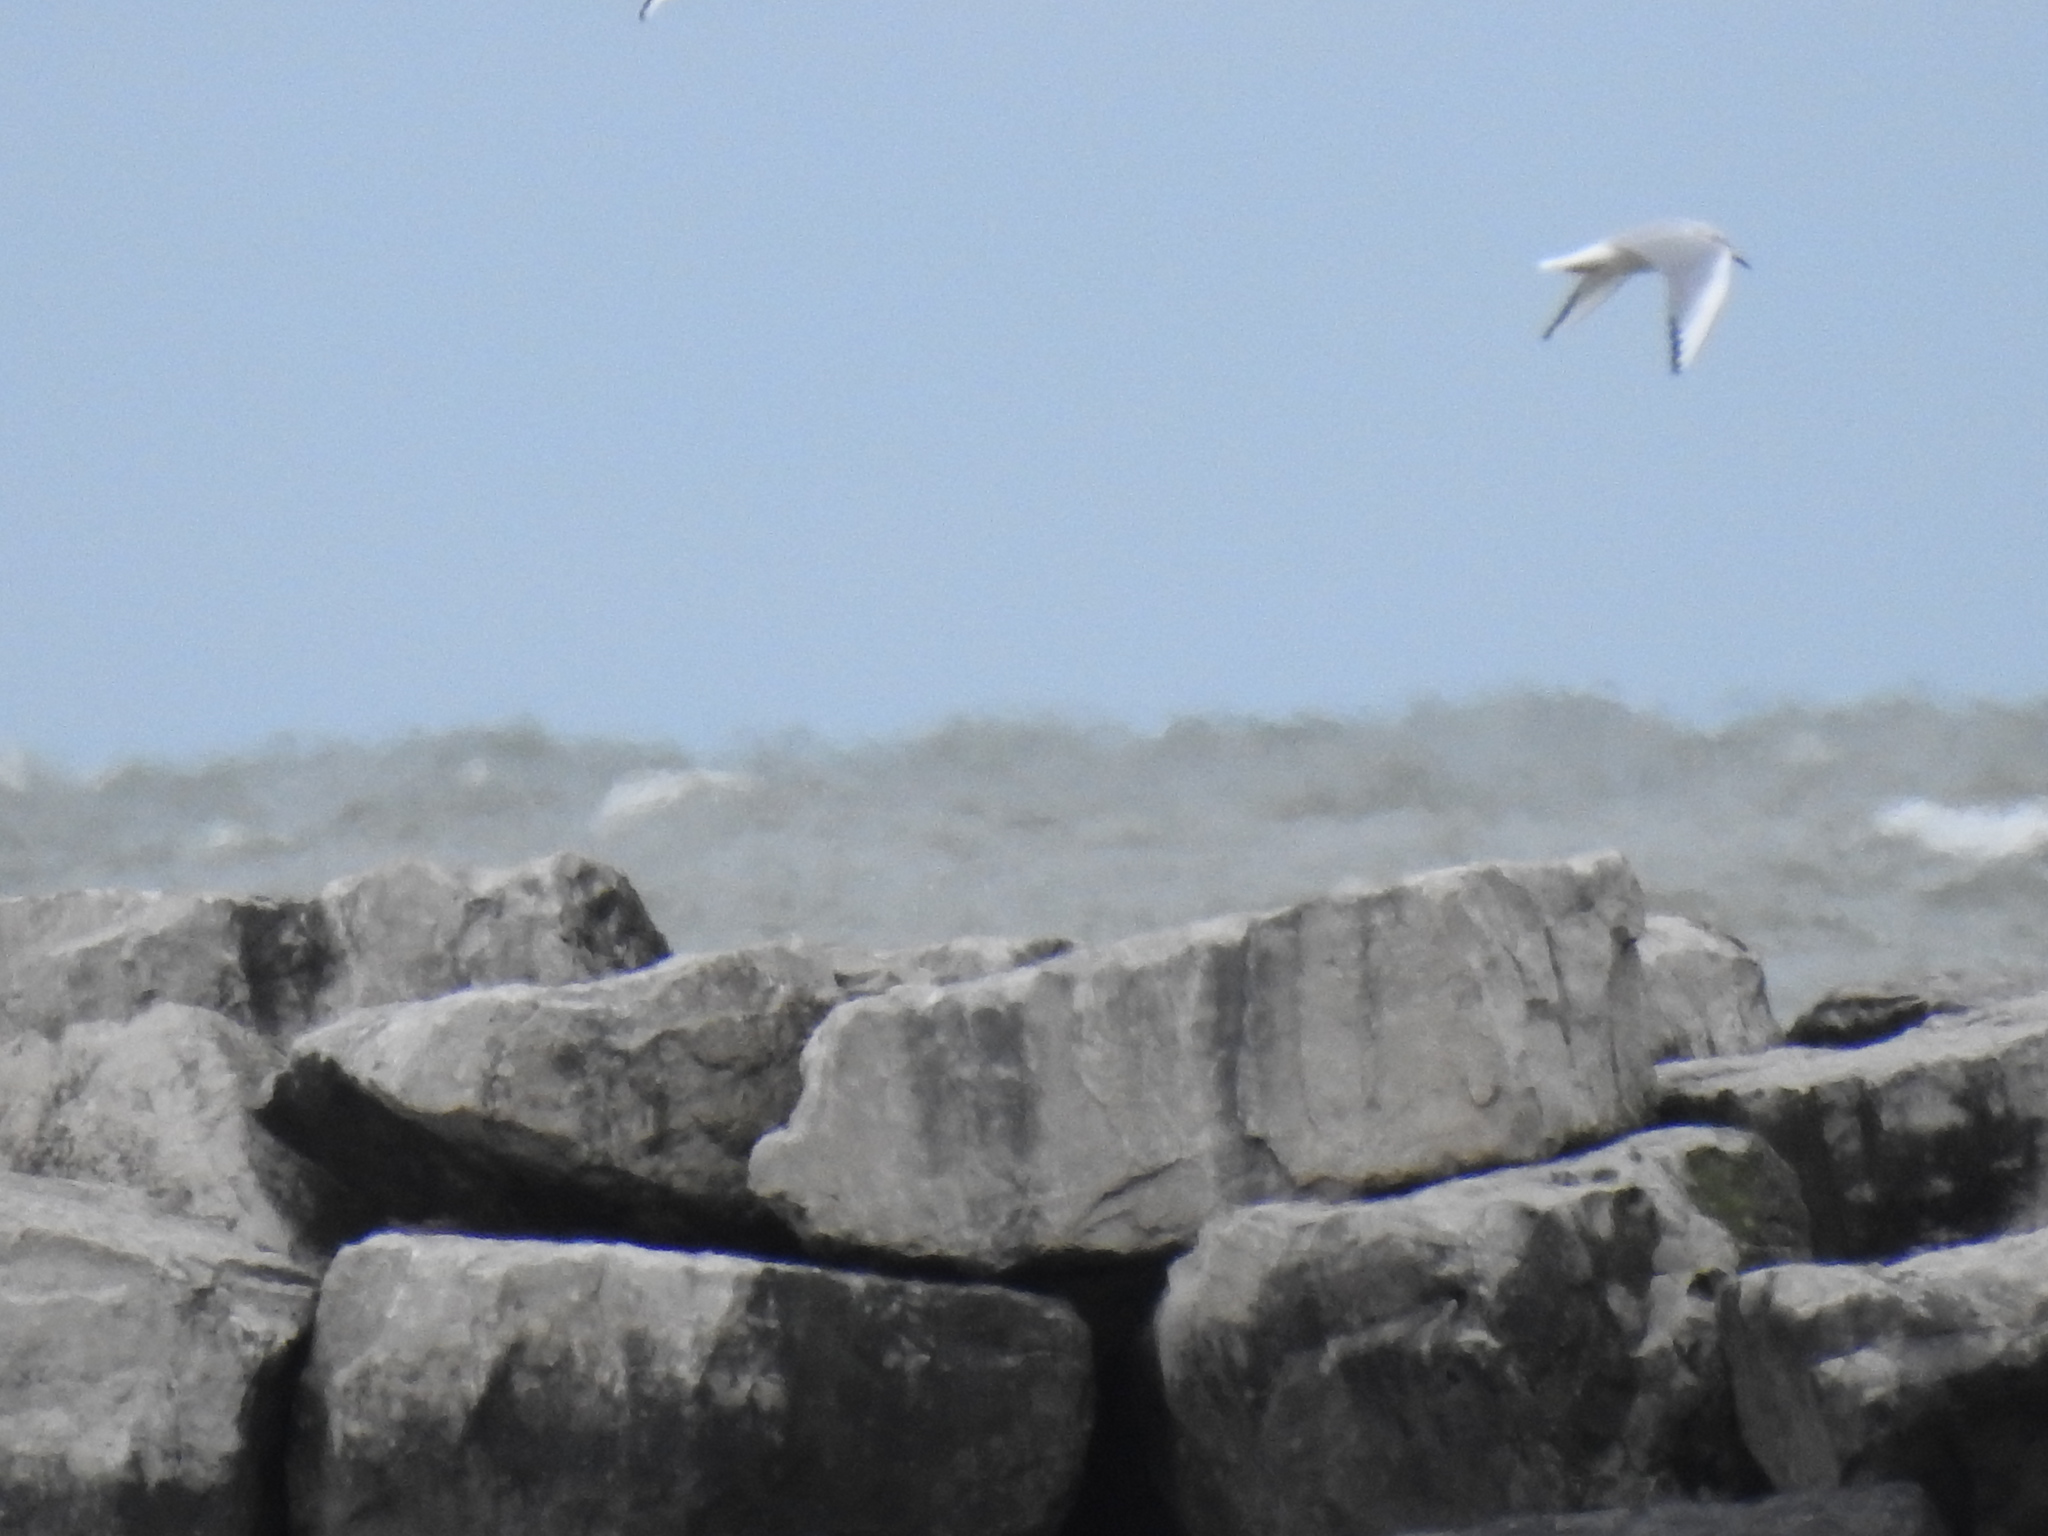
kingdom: Animalia
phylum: Chordata
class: Aves
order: Charadriiformes
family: Laridae
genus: Chroicocephalus
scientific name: Chroicocephalus philadelphia
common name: Bonaparte's gull
